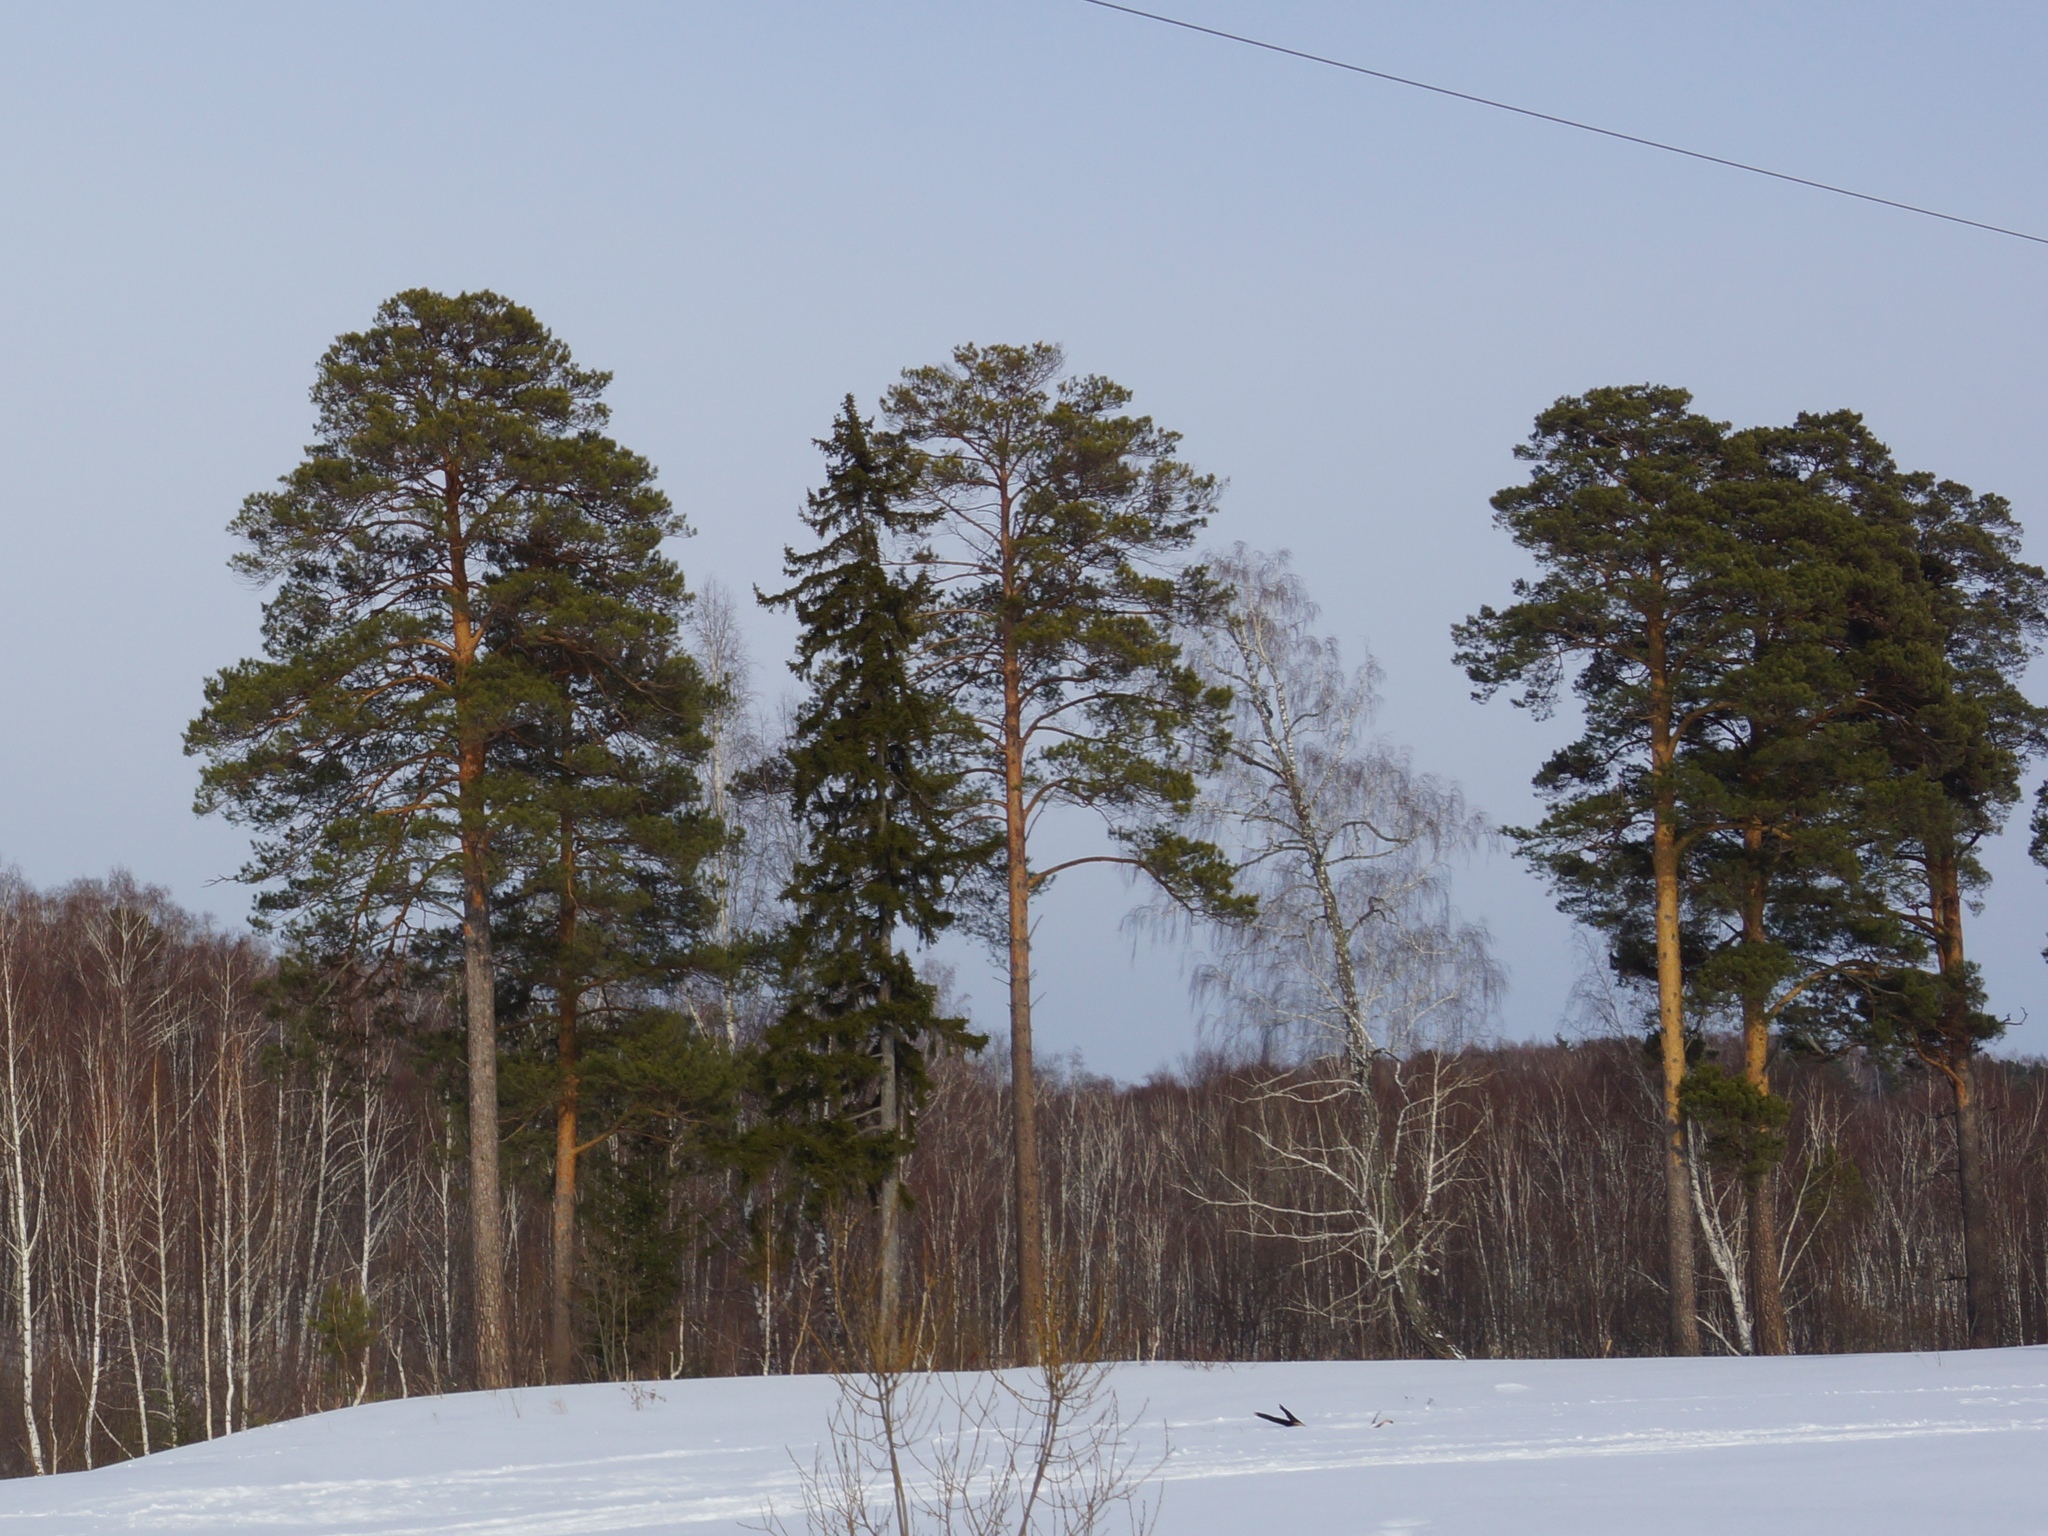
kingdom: Plantae
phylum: Tracheophyta
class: Pinopsida
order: Pinales
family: Pinaceae
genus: Pinus
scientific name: Pinus sylvestris
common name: Scots pine
